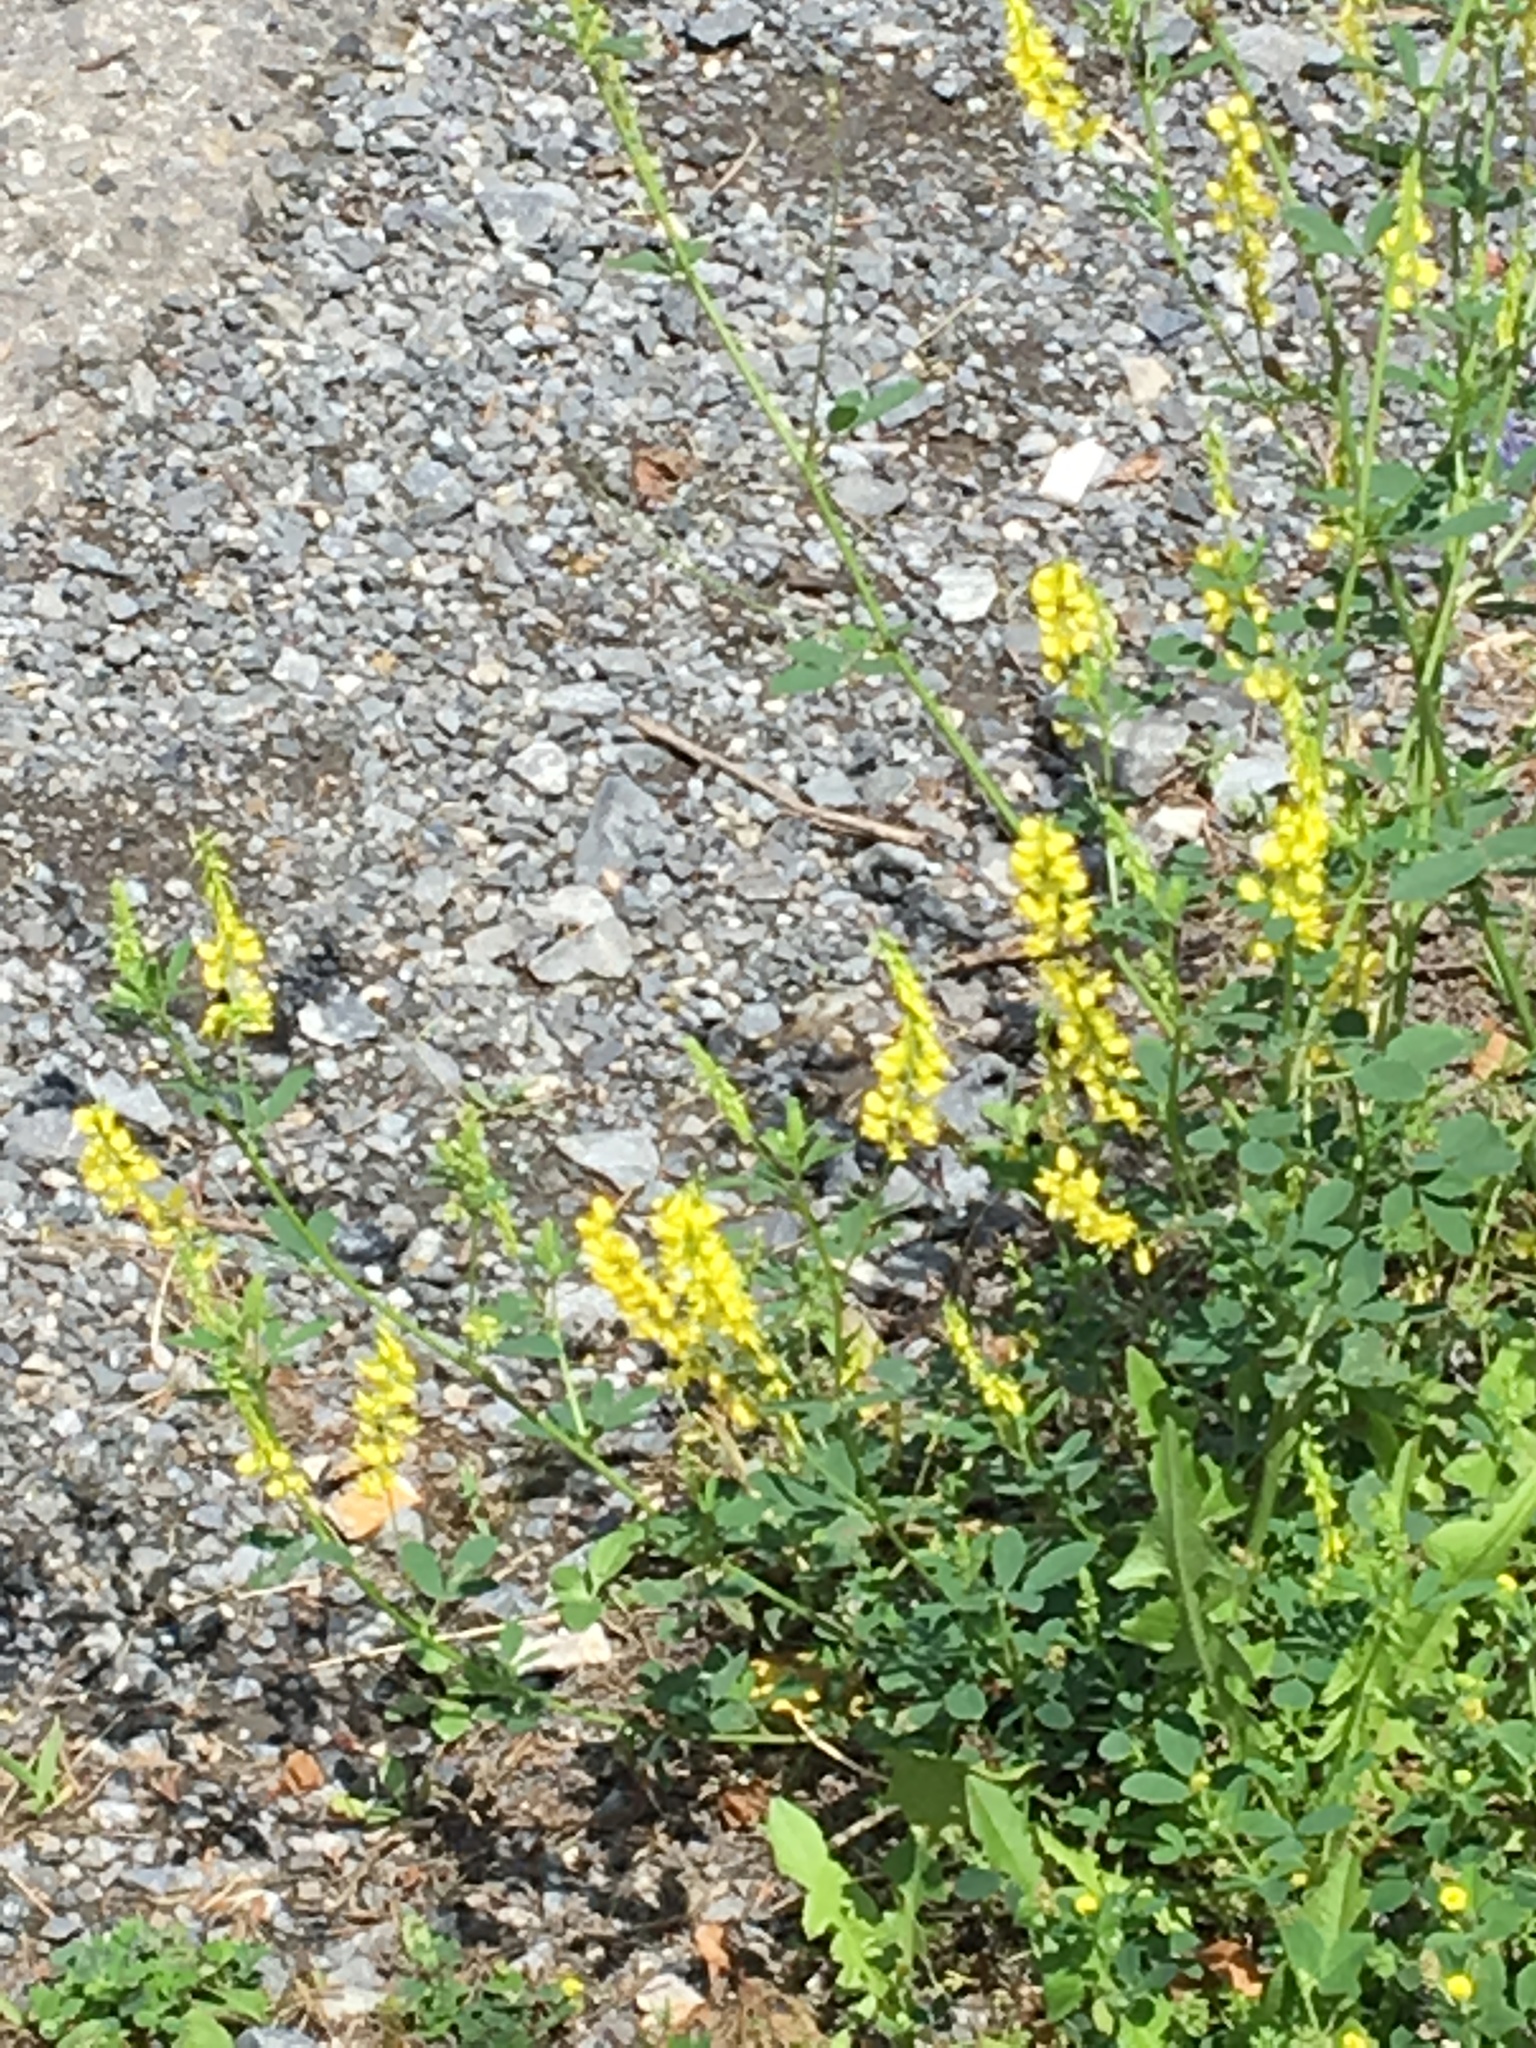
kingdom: Plantae
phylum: Tracheophyta
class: Magnoliopsida
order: Fabales
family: Fabaceae
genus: Melilotus
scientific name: Melilotus officinalis
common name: Sweetclover
